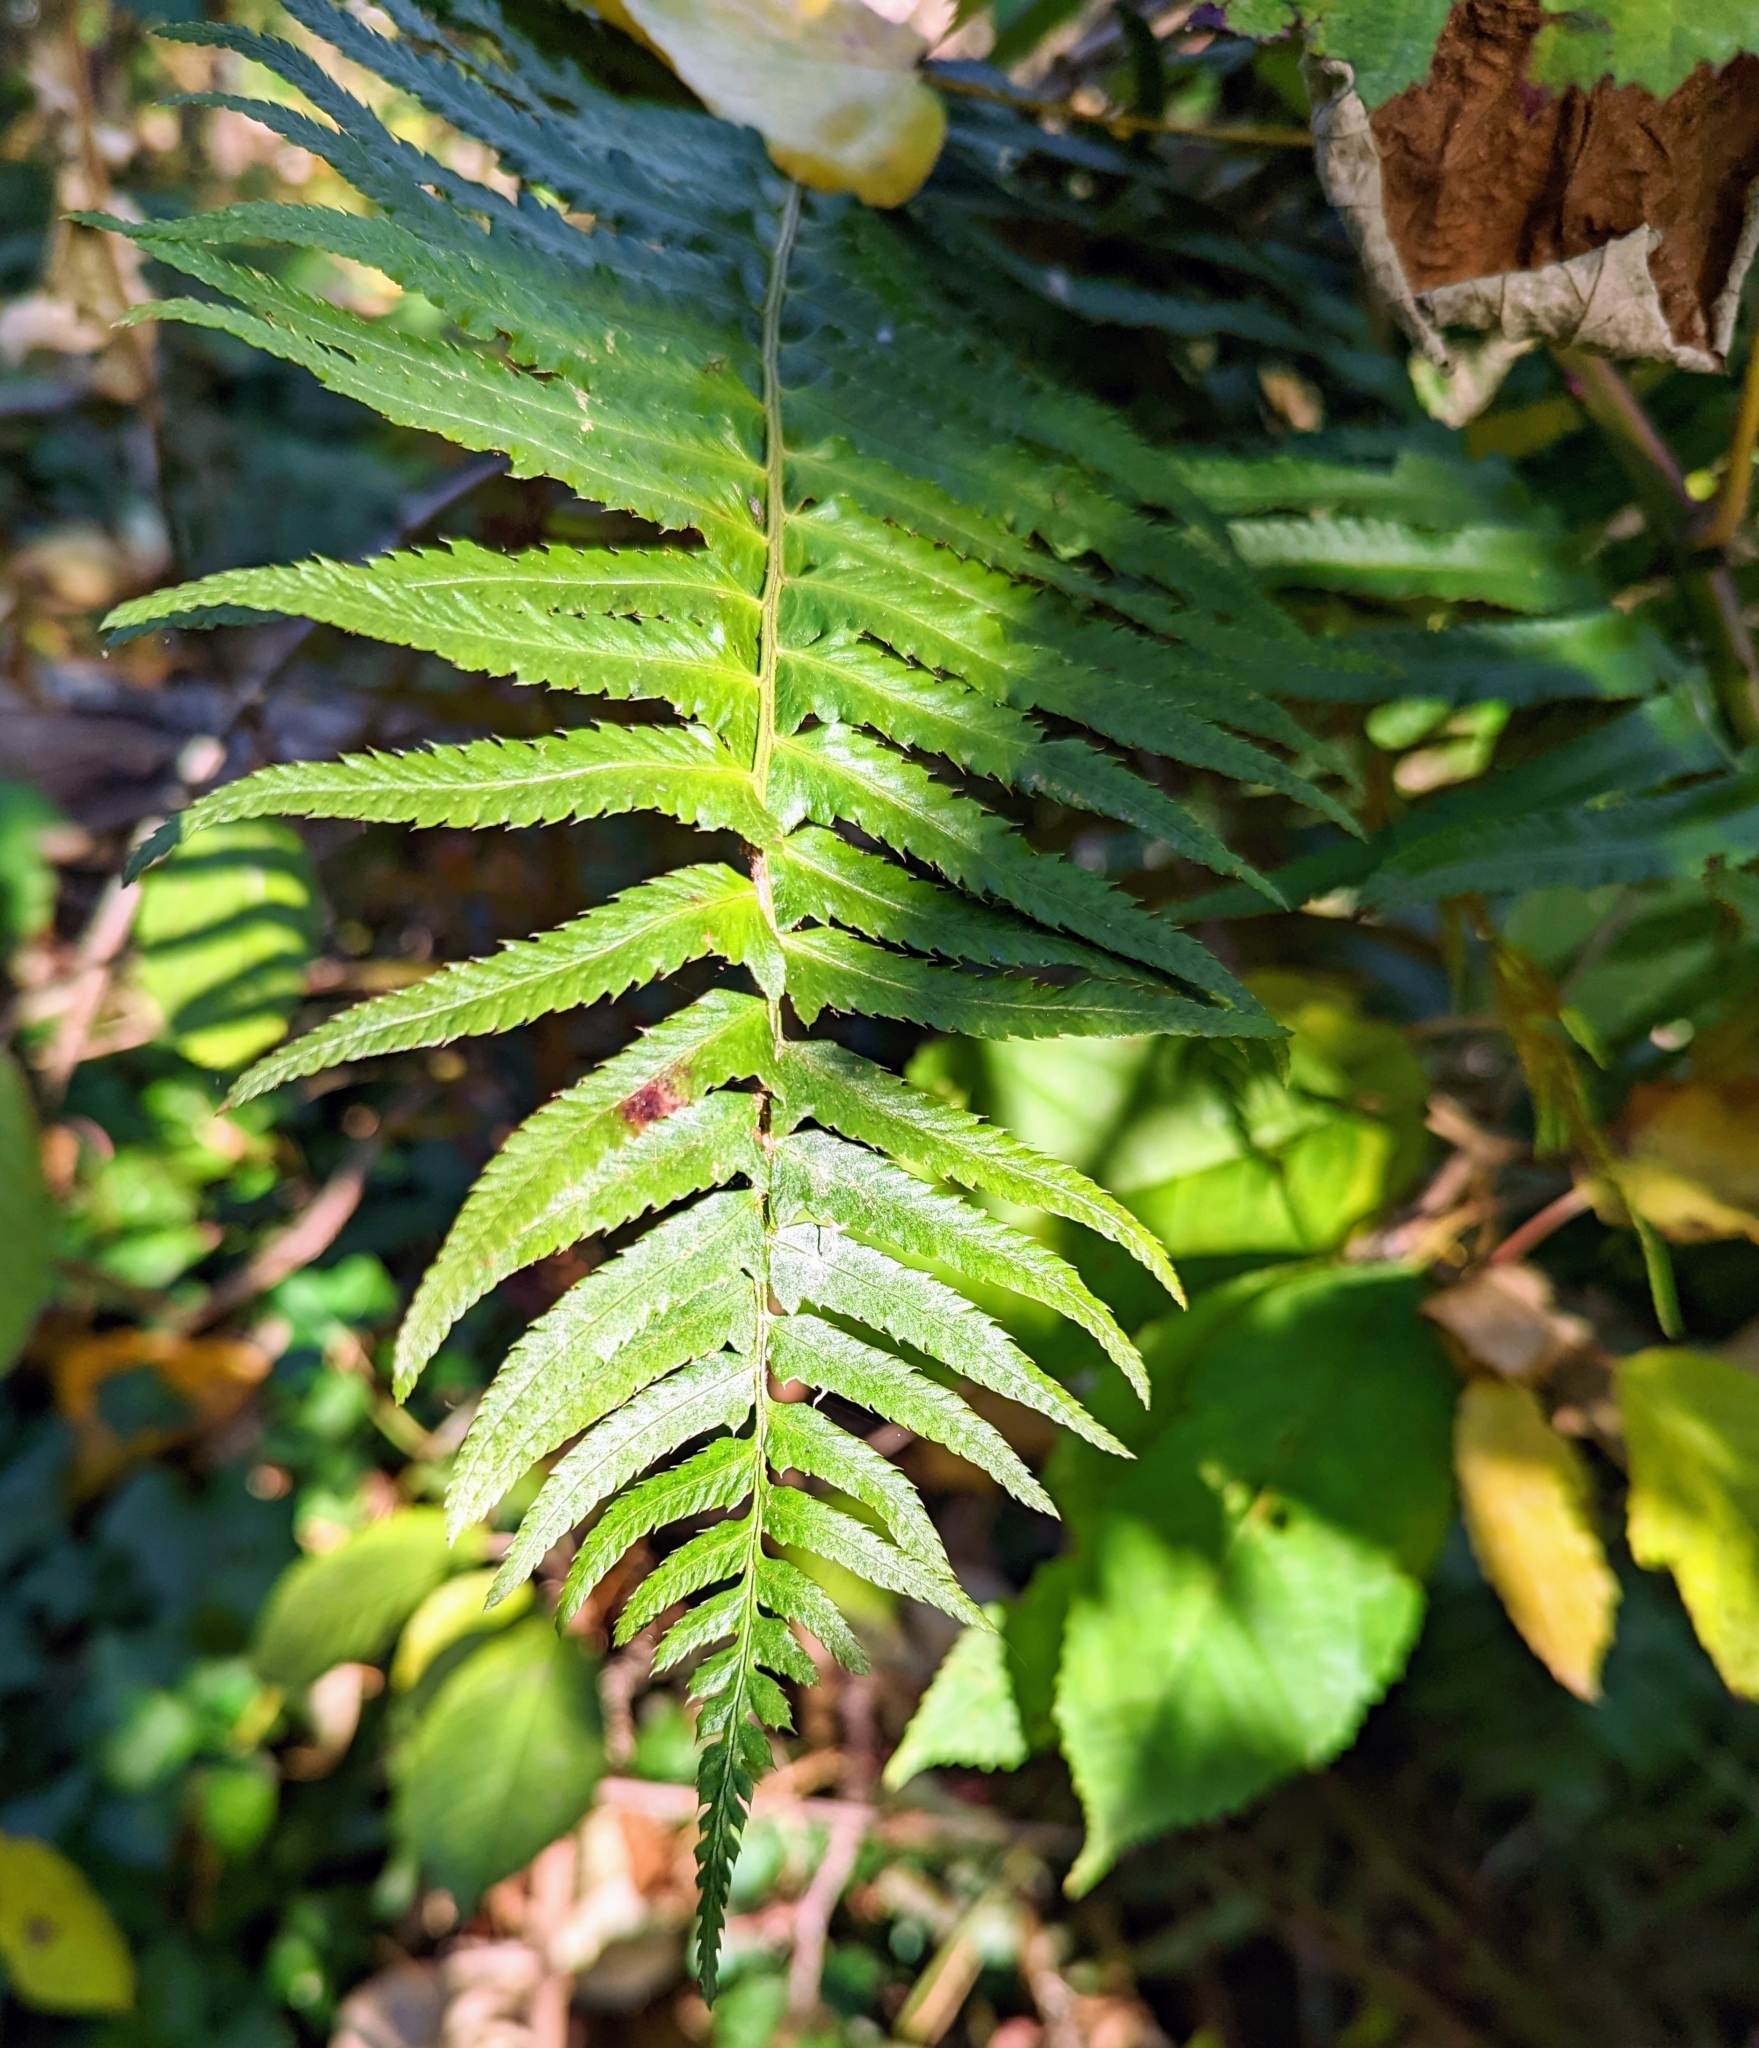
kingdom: Plantae
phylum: Tracheophyta
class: Polypodiopsida
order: Polypodiales
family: Dryopteridaceae
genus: Polystichum
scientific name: Polystichum munitum
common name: Western sword-fern
